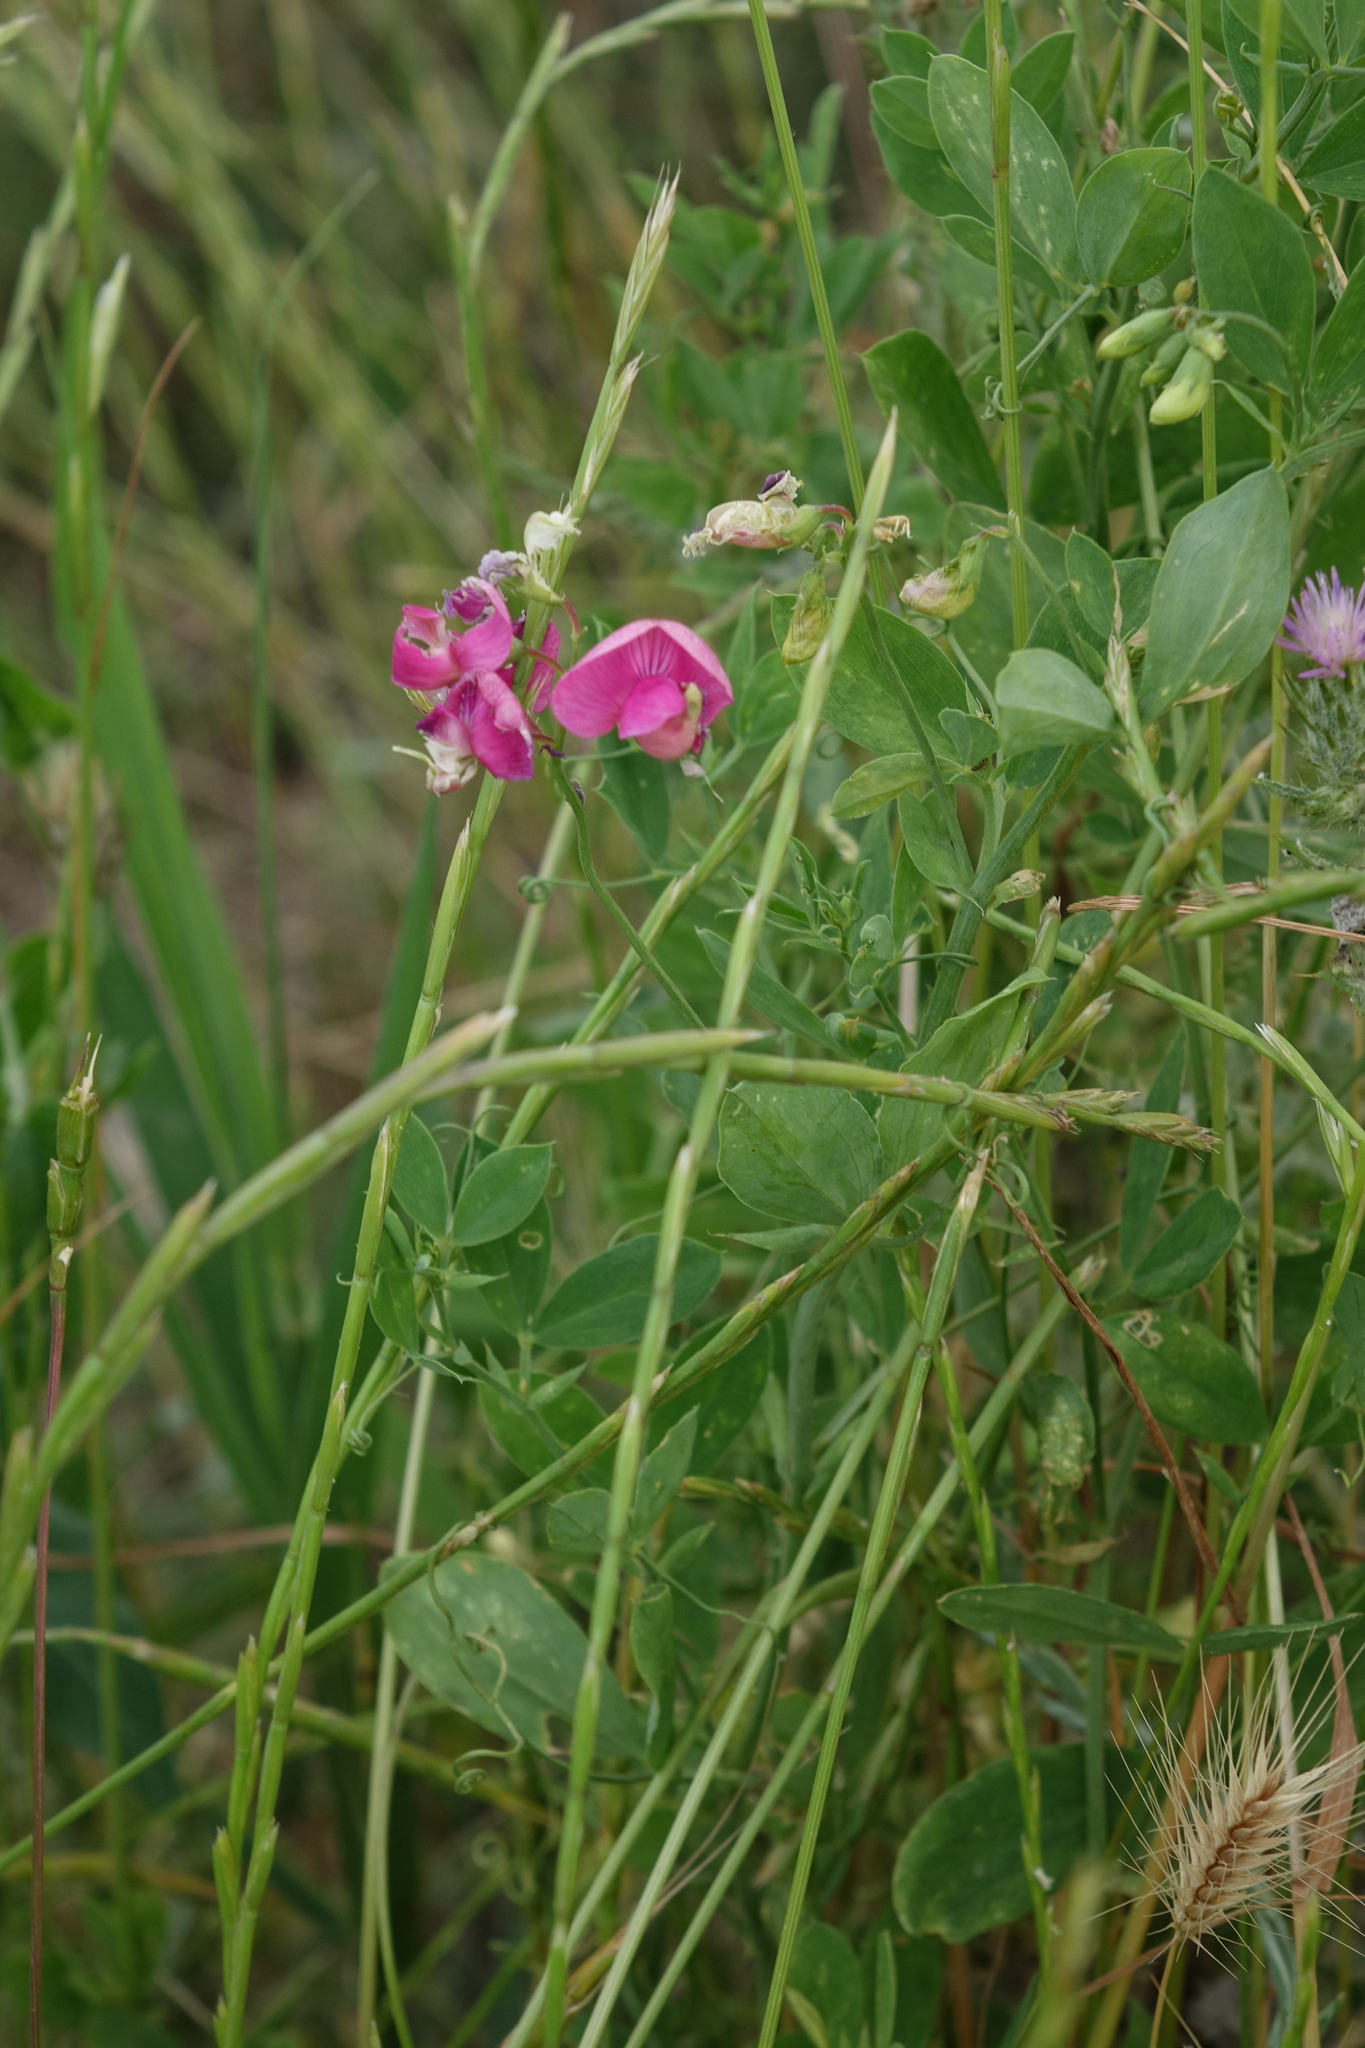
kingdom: Plantae
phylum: Tracheophyta
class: Magnoliopsida
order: Fabales
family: Fabaceae
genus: Lathyrus
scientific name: Lathyrus tuberosus
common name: Tuberous pea
